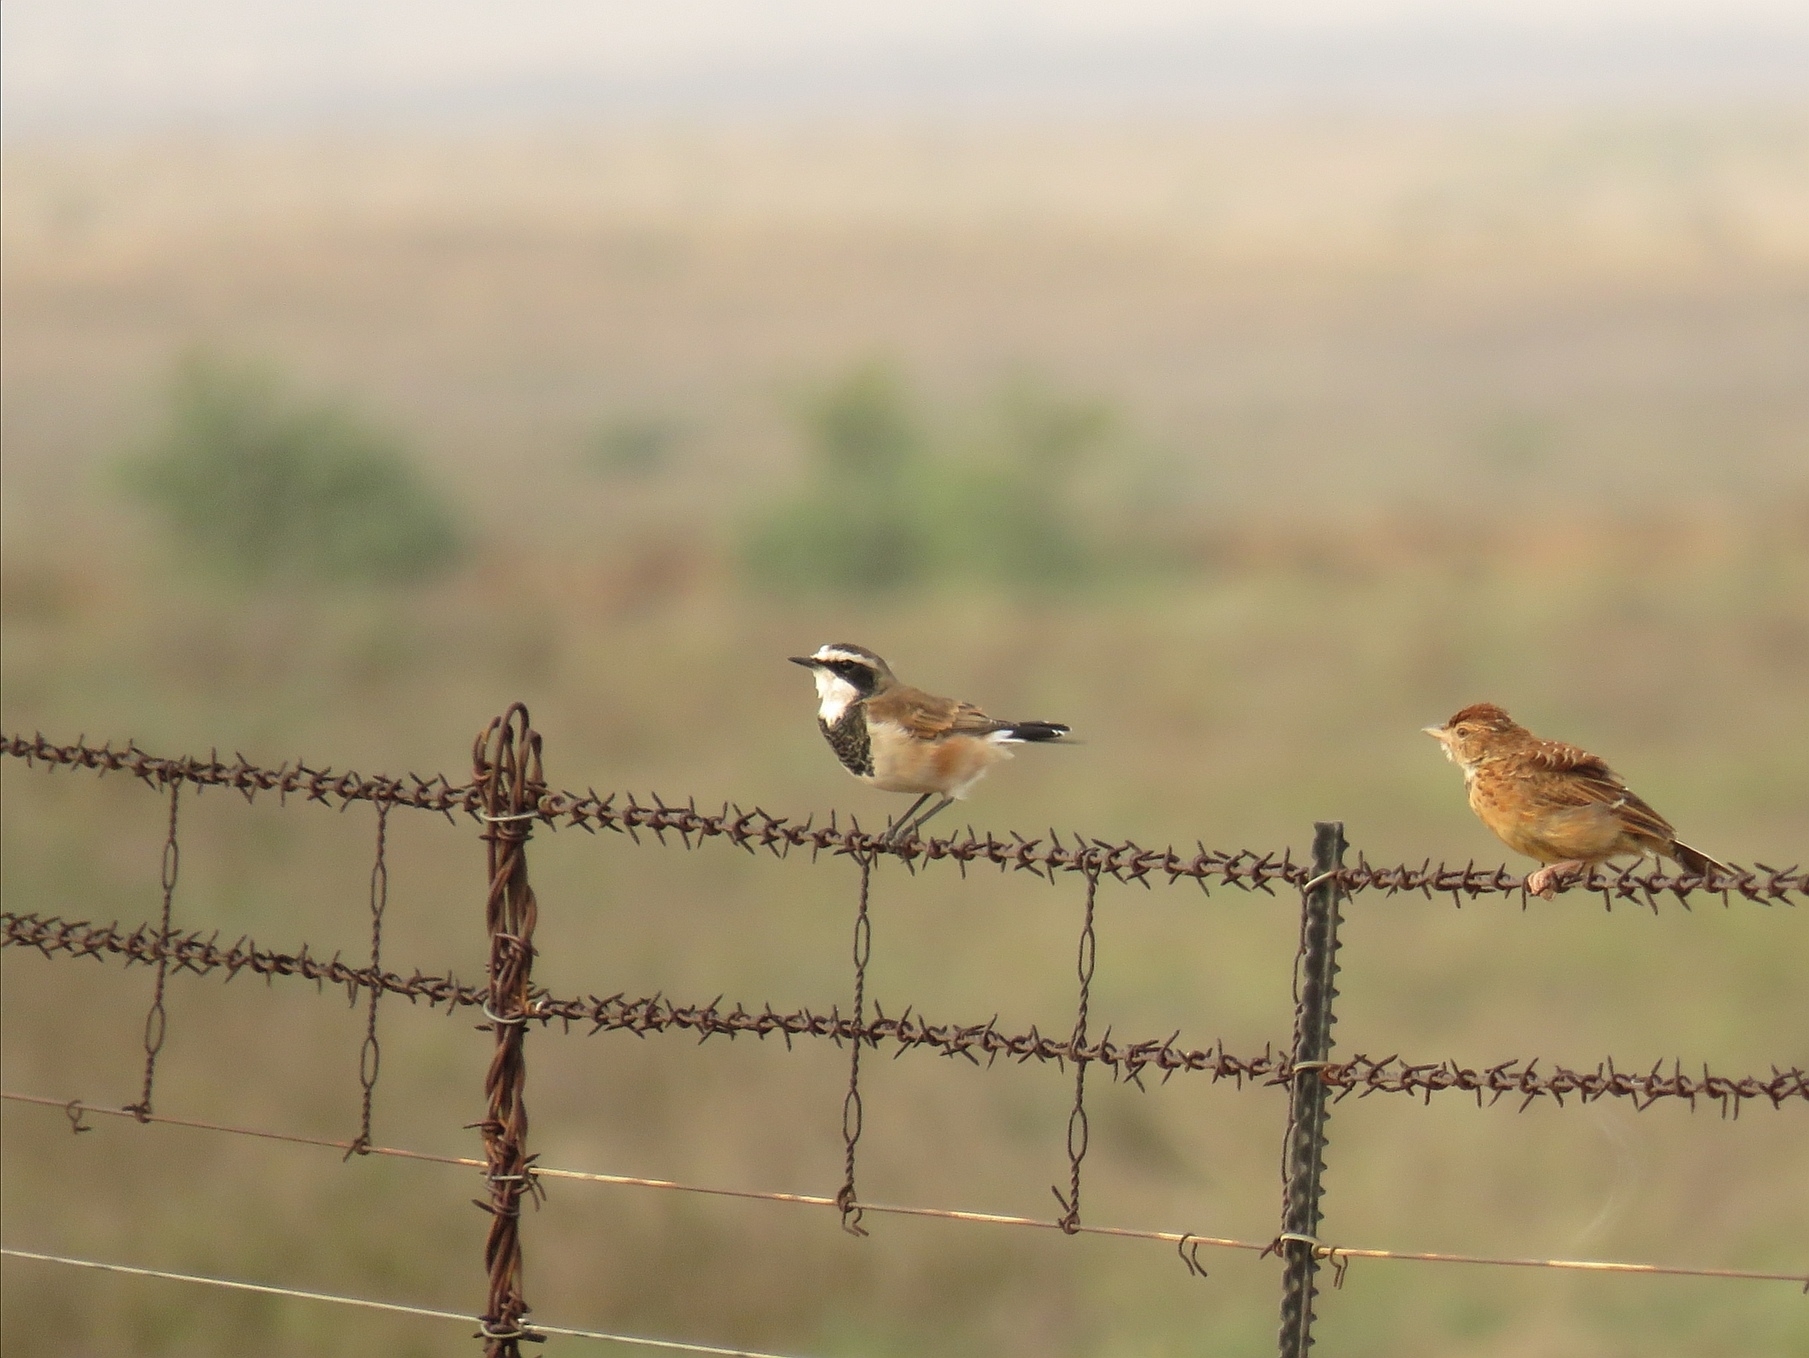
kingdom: Animalia
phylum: Chordata
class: Aves
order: Passeriformes
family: Muscicapidae
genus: Oenanthe
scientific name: Oenanthe pileata
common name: Capped wheatear
